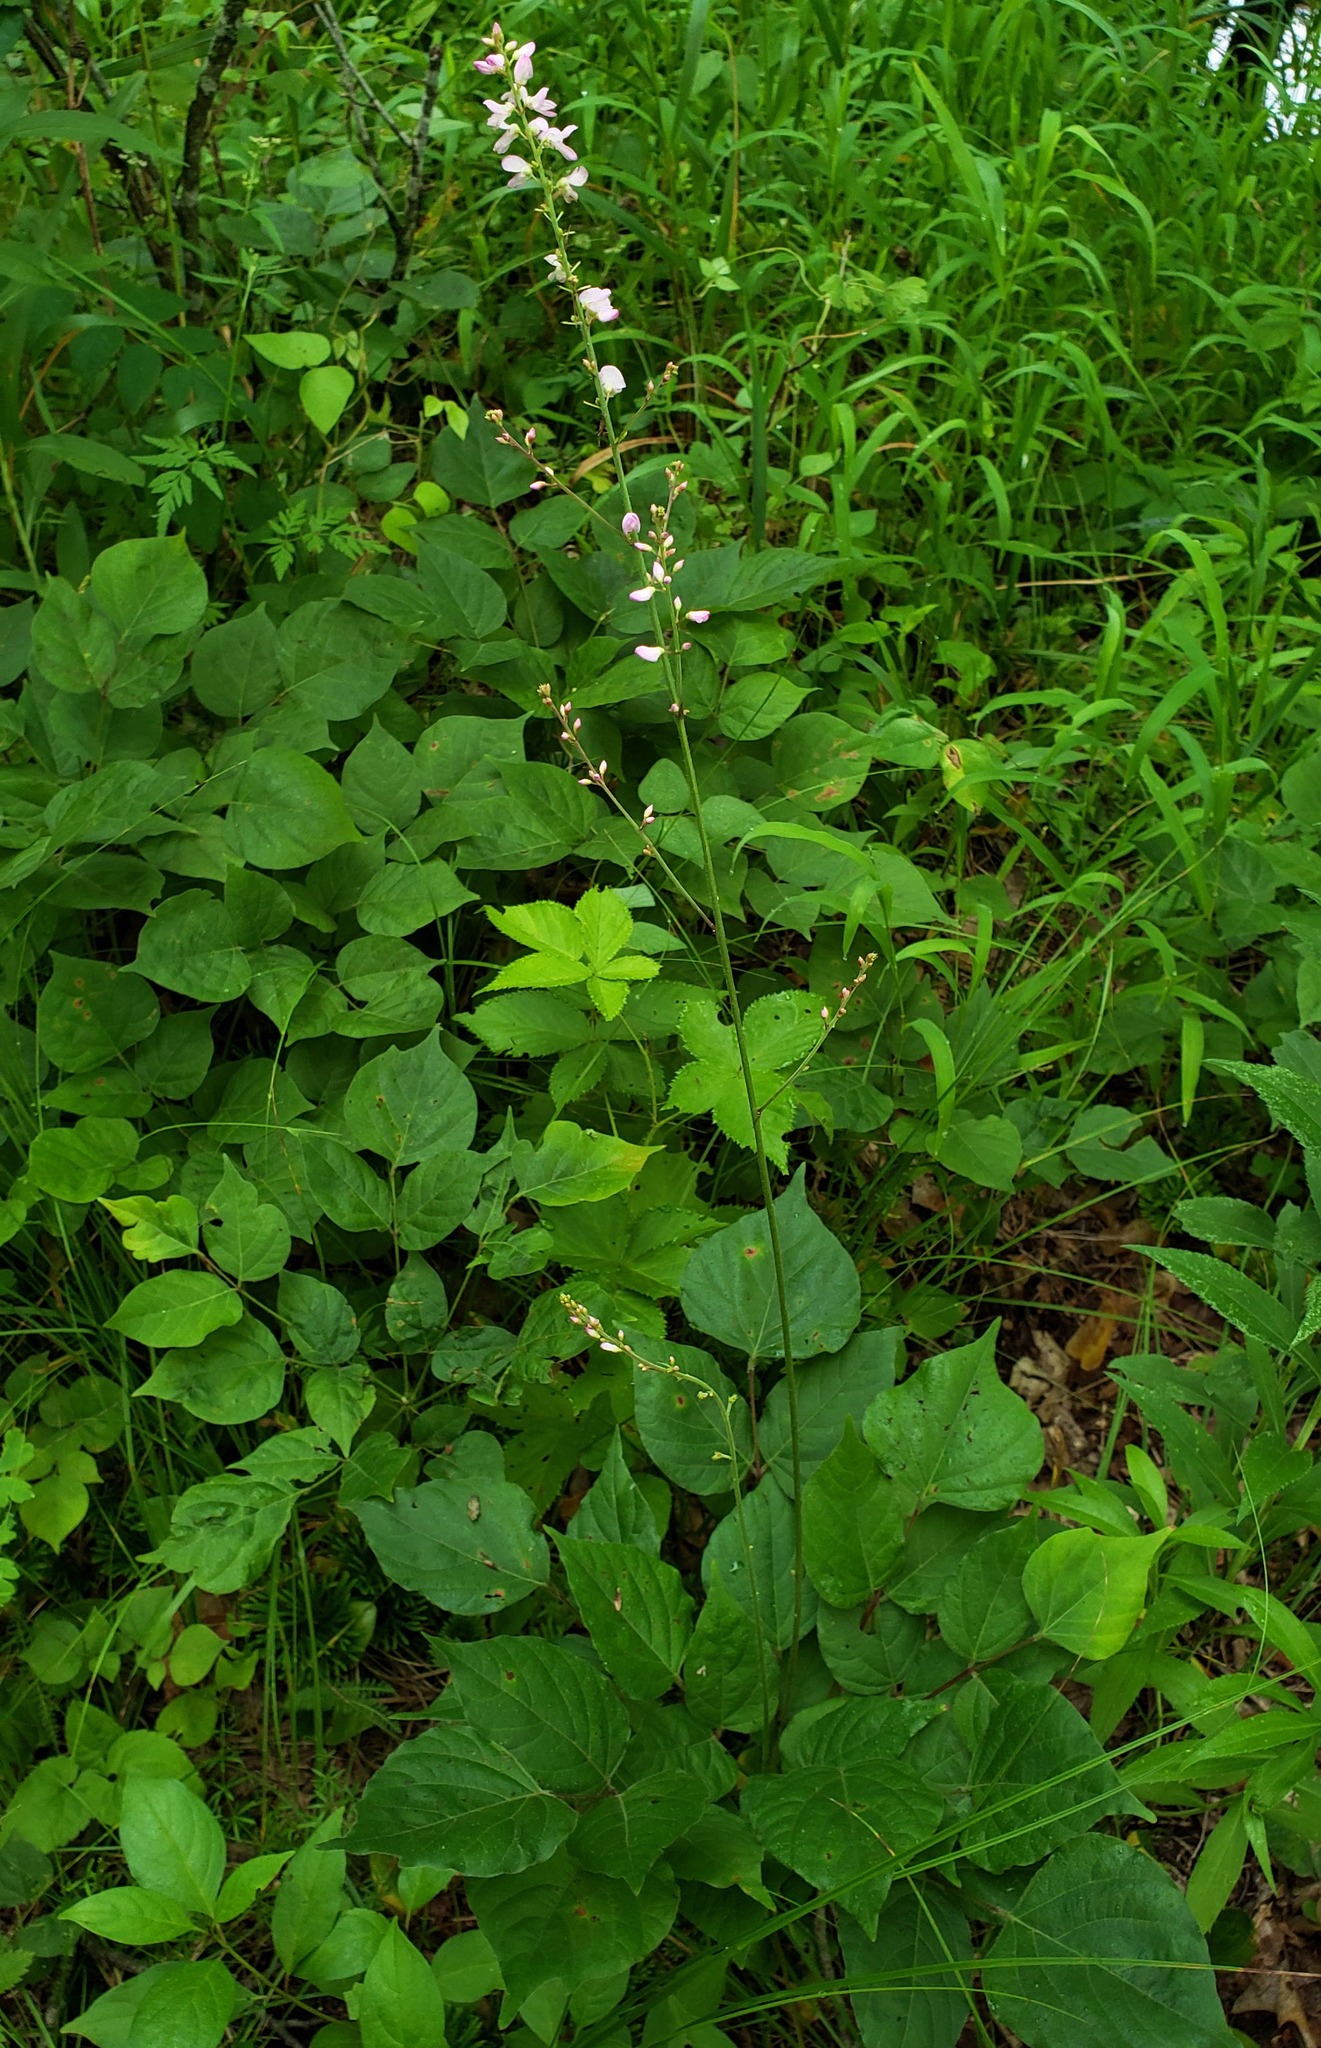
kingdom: Plantae
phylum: Tracheophyta
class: Magnoliopsida
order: Fabales
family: Fabaceae
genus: Hylodesmum
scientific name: Hylodesmum glutinosum
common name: Clustered-leaved tick-trefoil
